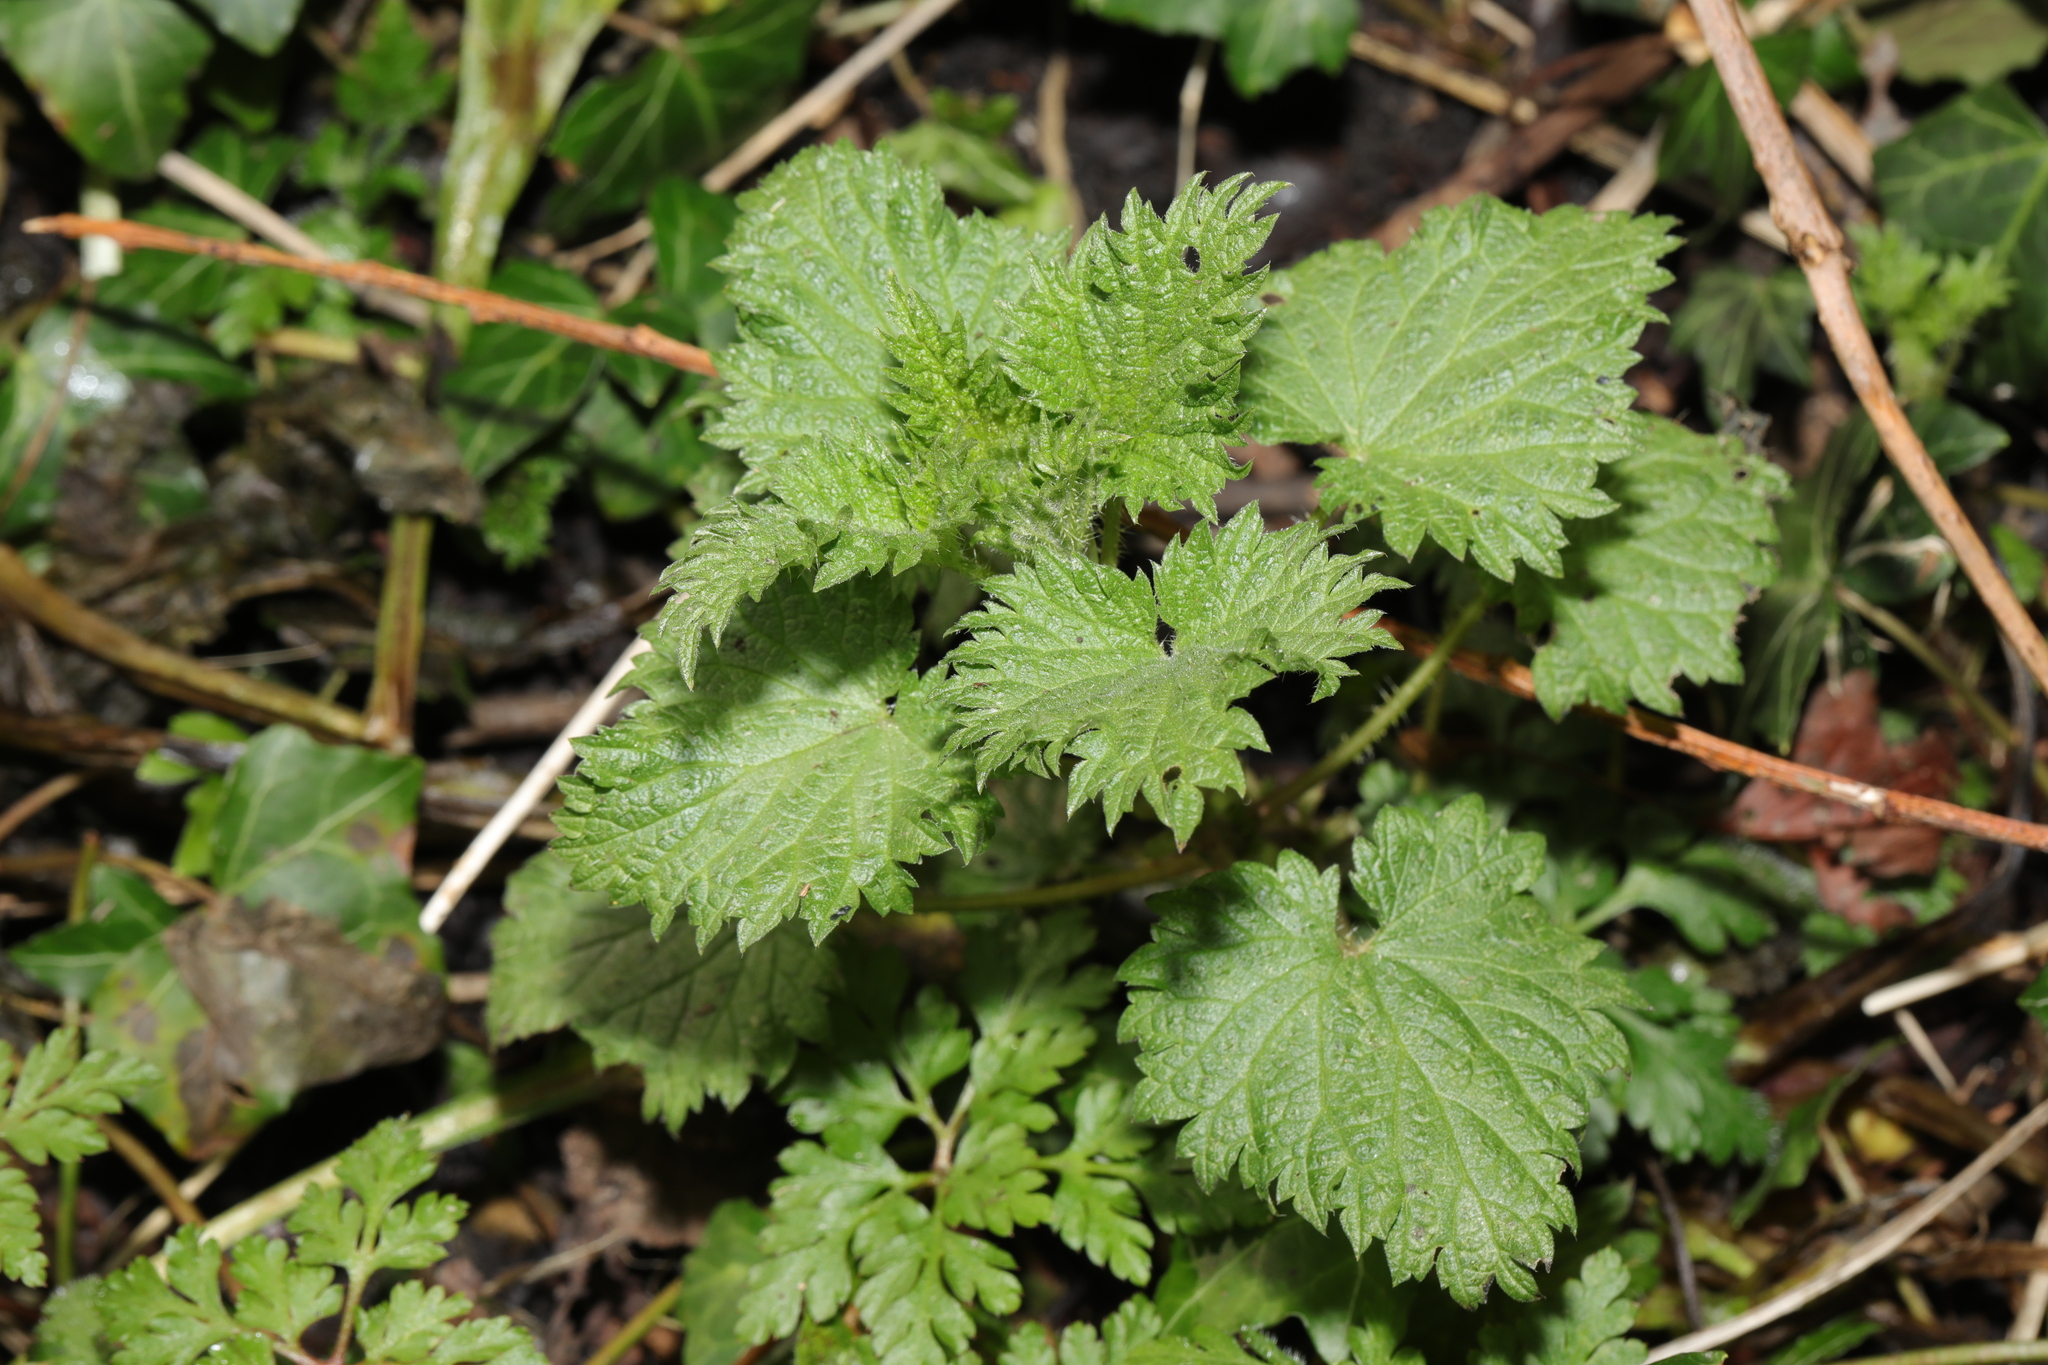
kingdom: Plantae
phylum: Tracheophyta
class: Magnoliopsida
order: Rosales
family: Urticaceae
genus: Urtica
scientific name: Urtica dioica
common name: Common nettle
